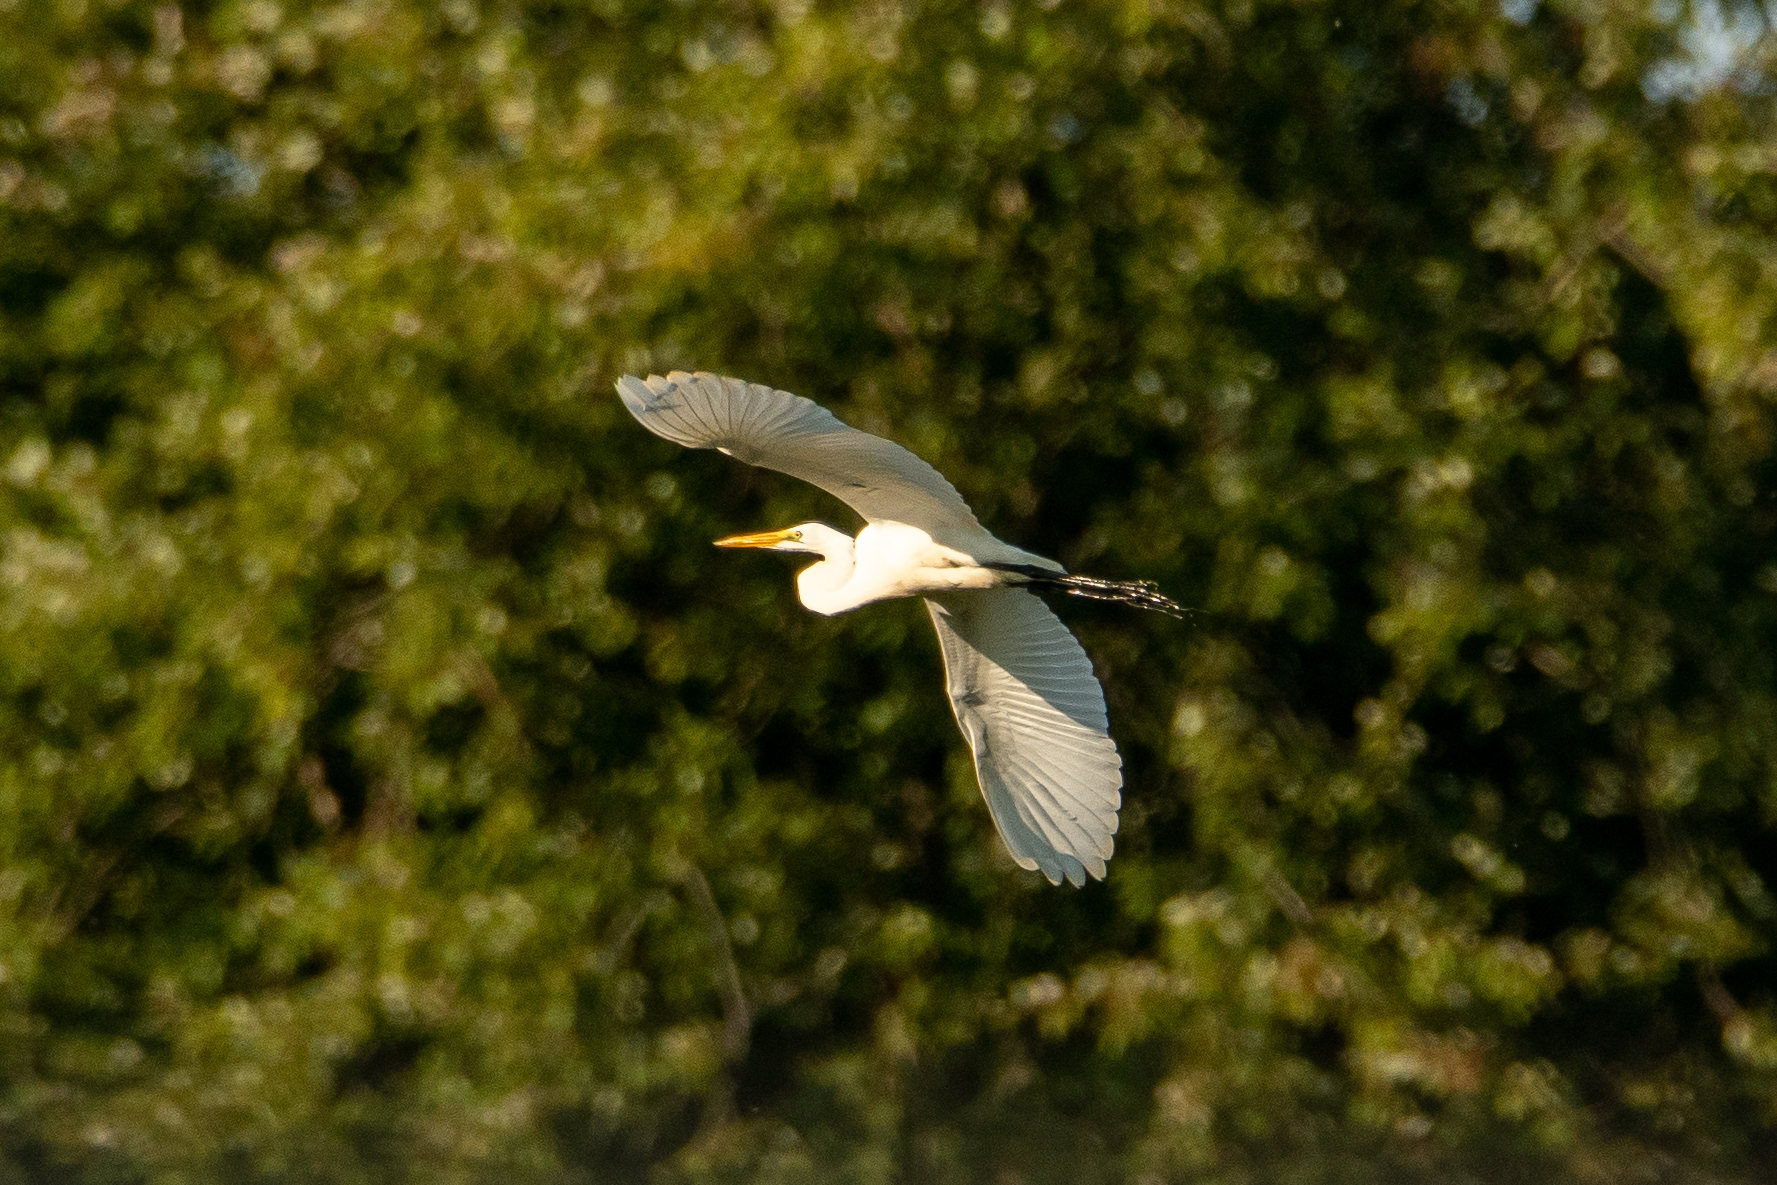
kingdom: Animalia
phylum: Chordata
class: Aves
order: Pelecaniformes
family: Ardeidae
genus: Ardea
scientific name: Ardea alba
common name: Great egret
